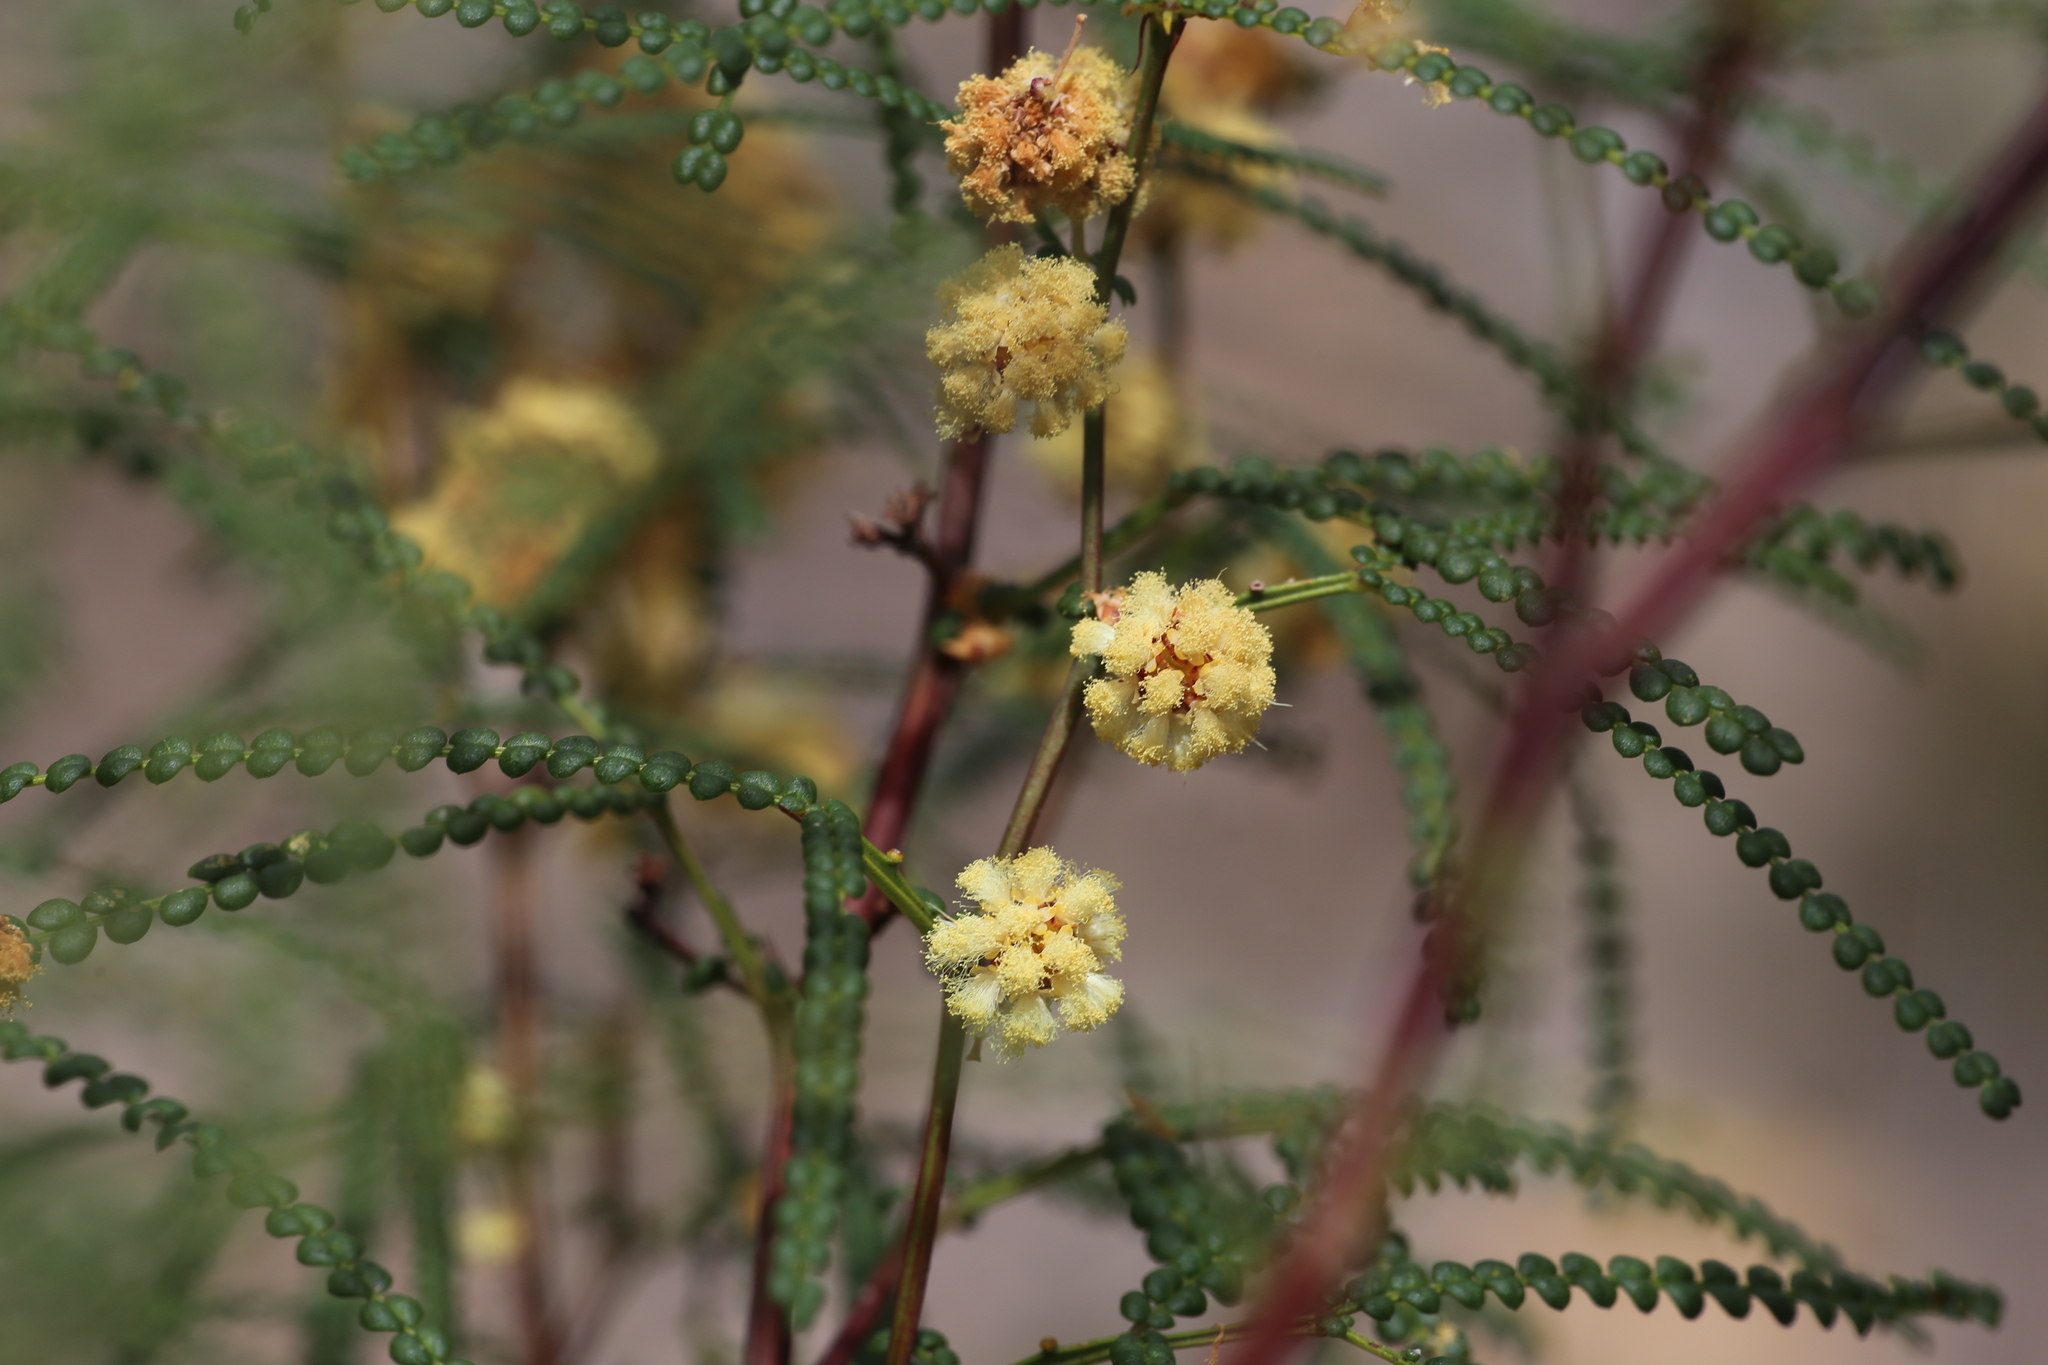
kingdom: Plantae
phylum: Tracheophyta
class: Magnoliopsida
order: Fabales
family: Fabaceae
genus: Acacia
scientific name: Acacia pentadenia
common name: Karri wattle
